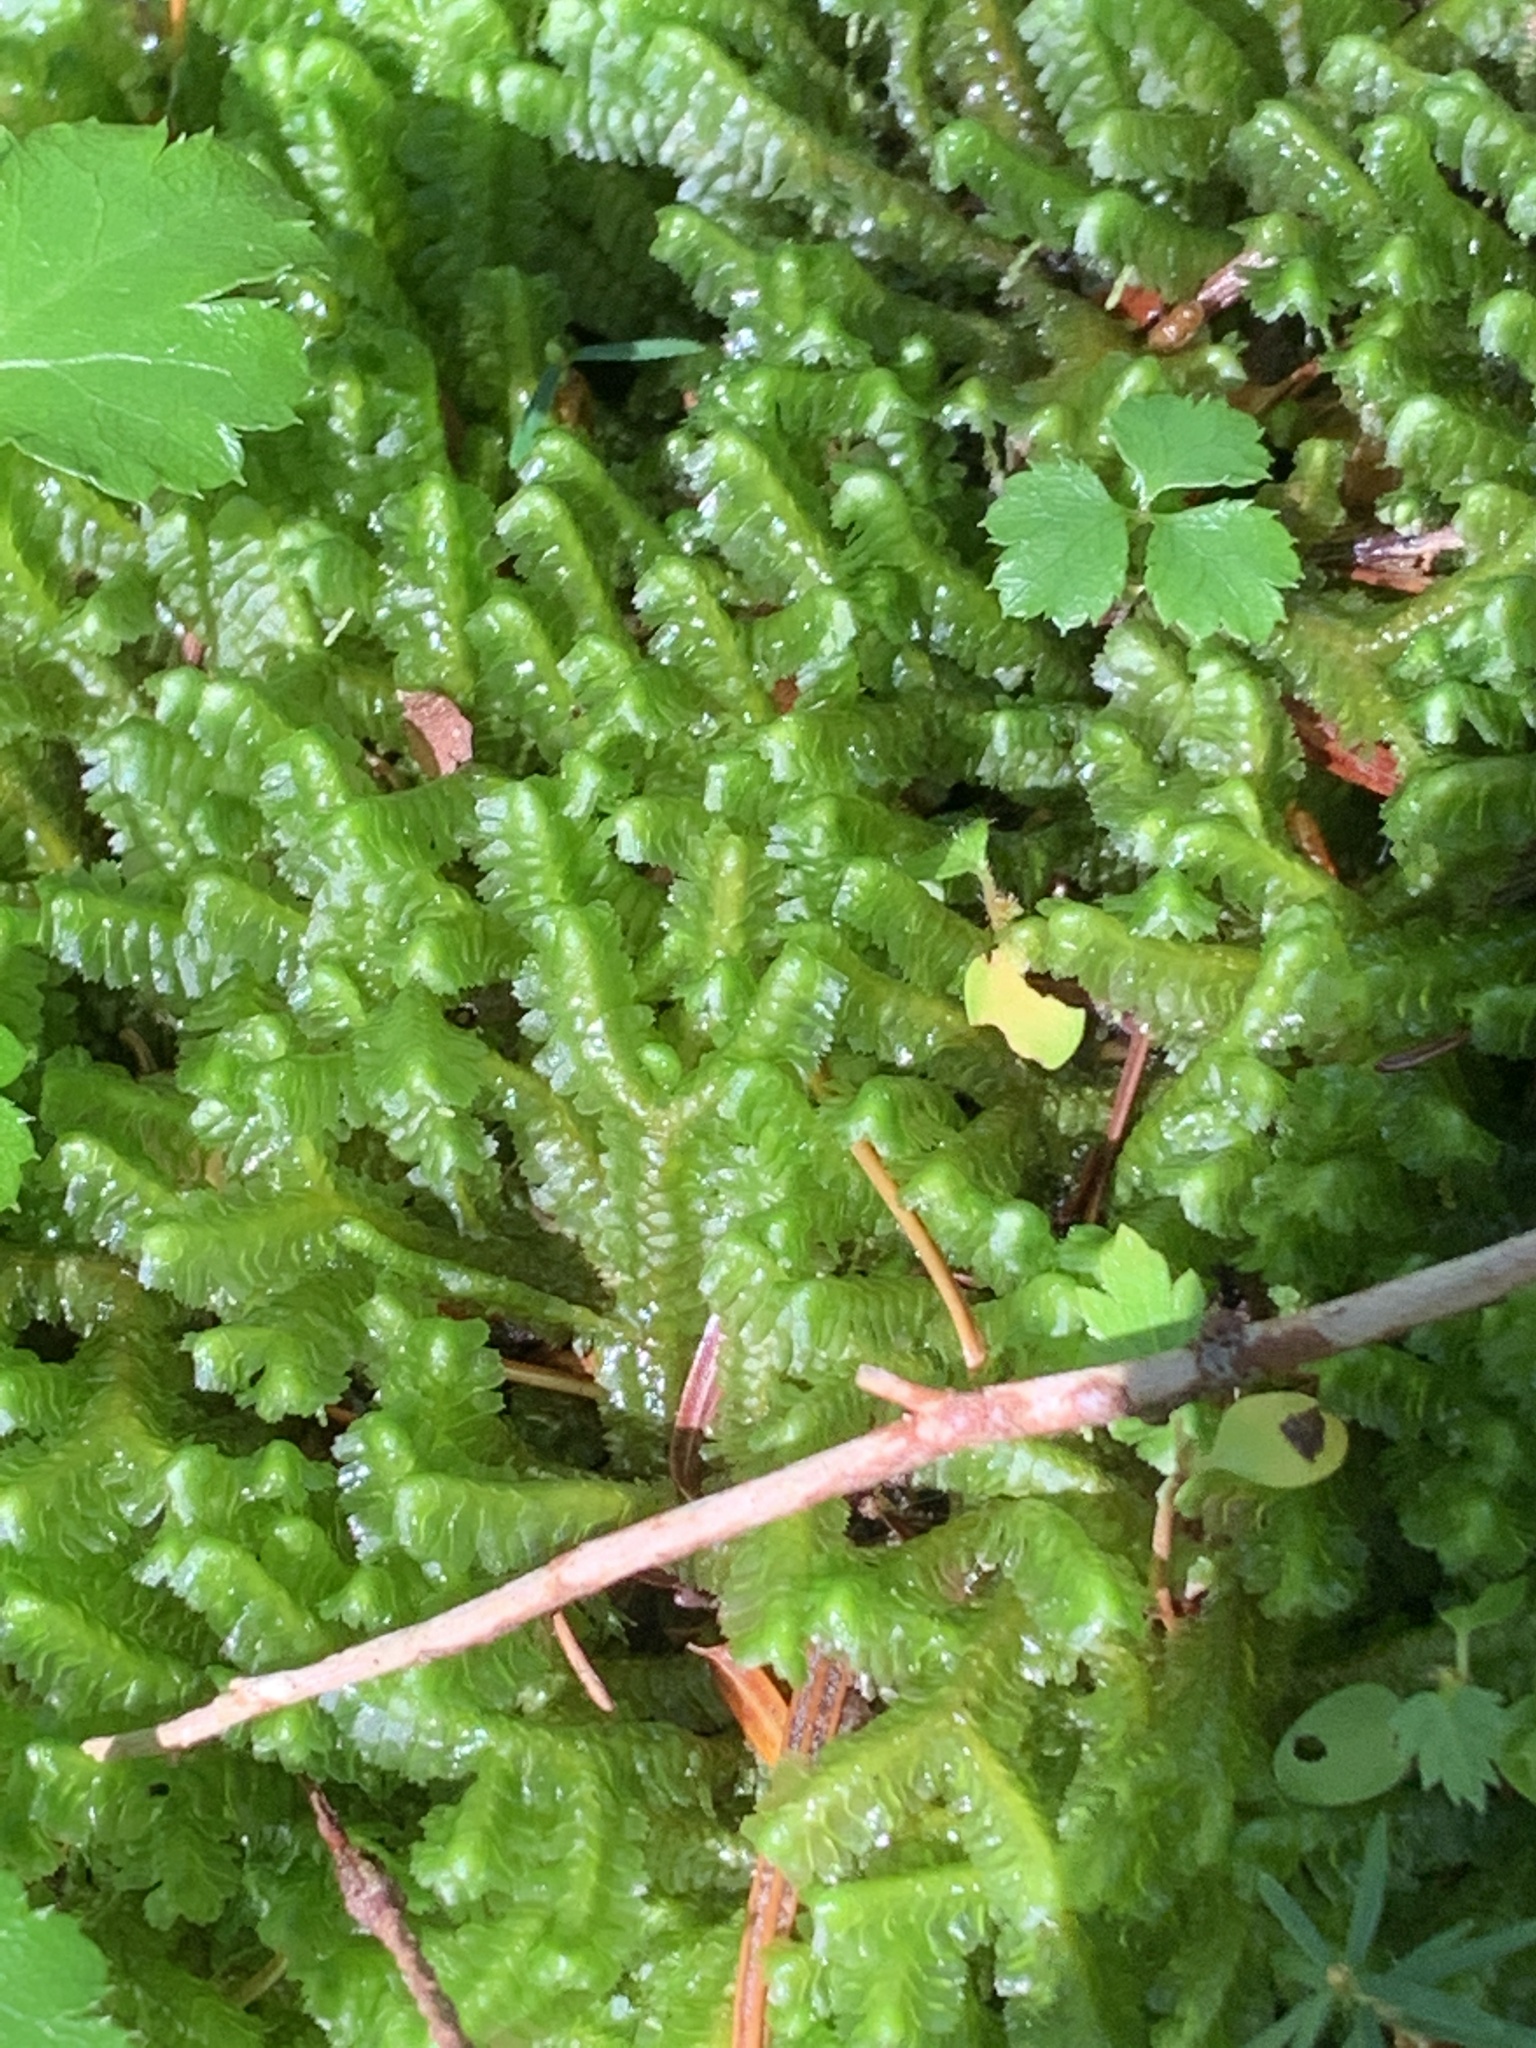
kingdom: Plantae
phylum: Marchantiophyta
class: Jungermanniopsida
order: Jungermanniales
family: Lepidoziaceae
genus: Bazzania
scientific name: Bazzania trilobata
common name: Three-lobed whipwort
